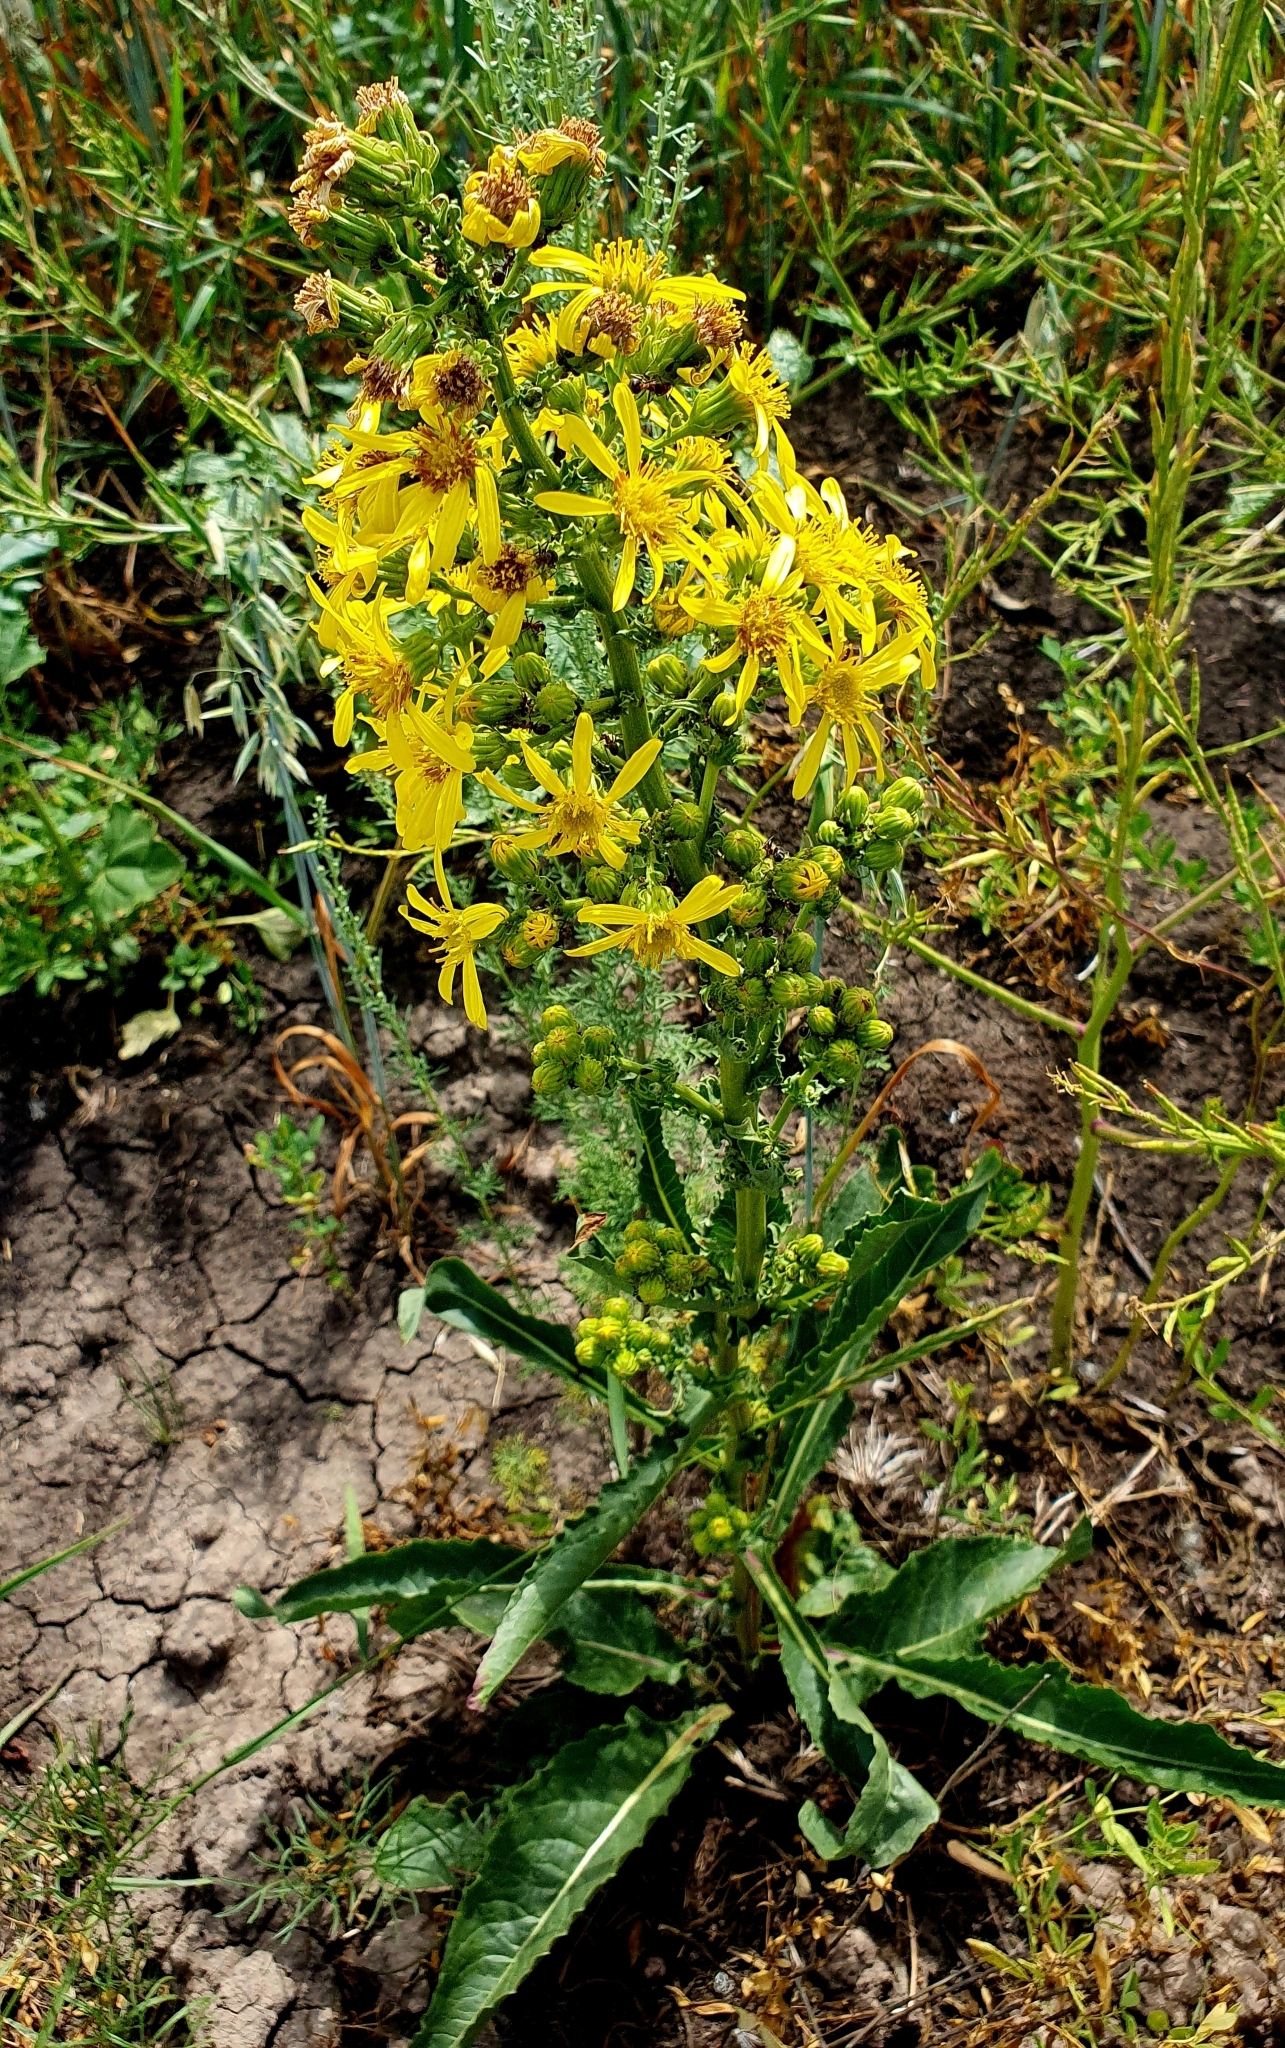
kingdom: Plantae
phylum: Tracheophyta
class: Magnoliopsida
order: Asterales
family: Asteraceae
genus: Jacobaea
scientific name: Jacobaea vulgaris
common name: Stinking willie
